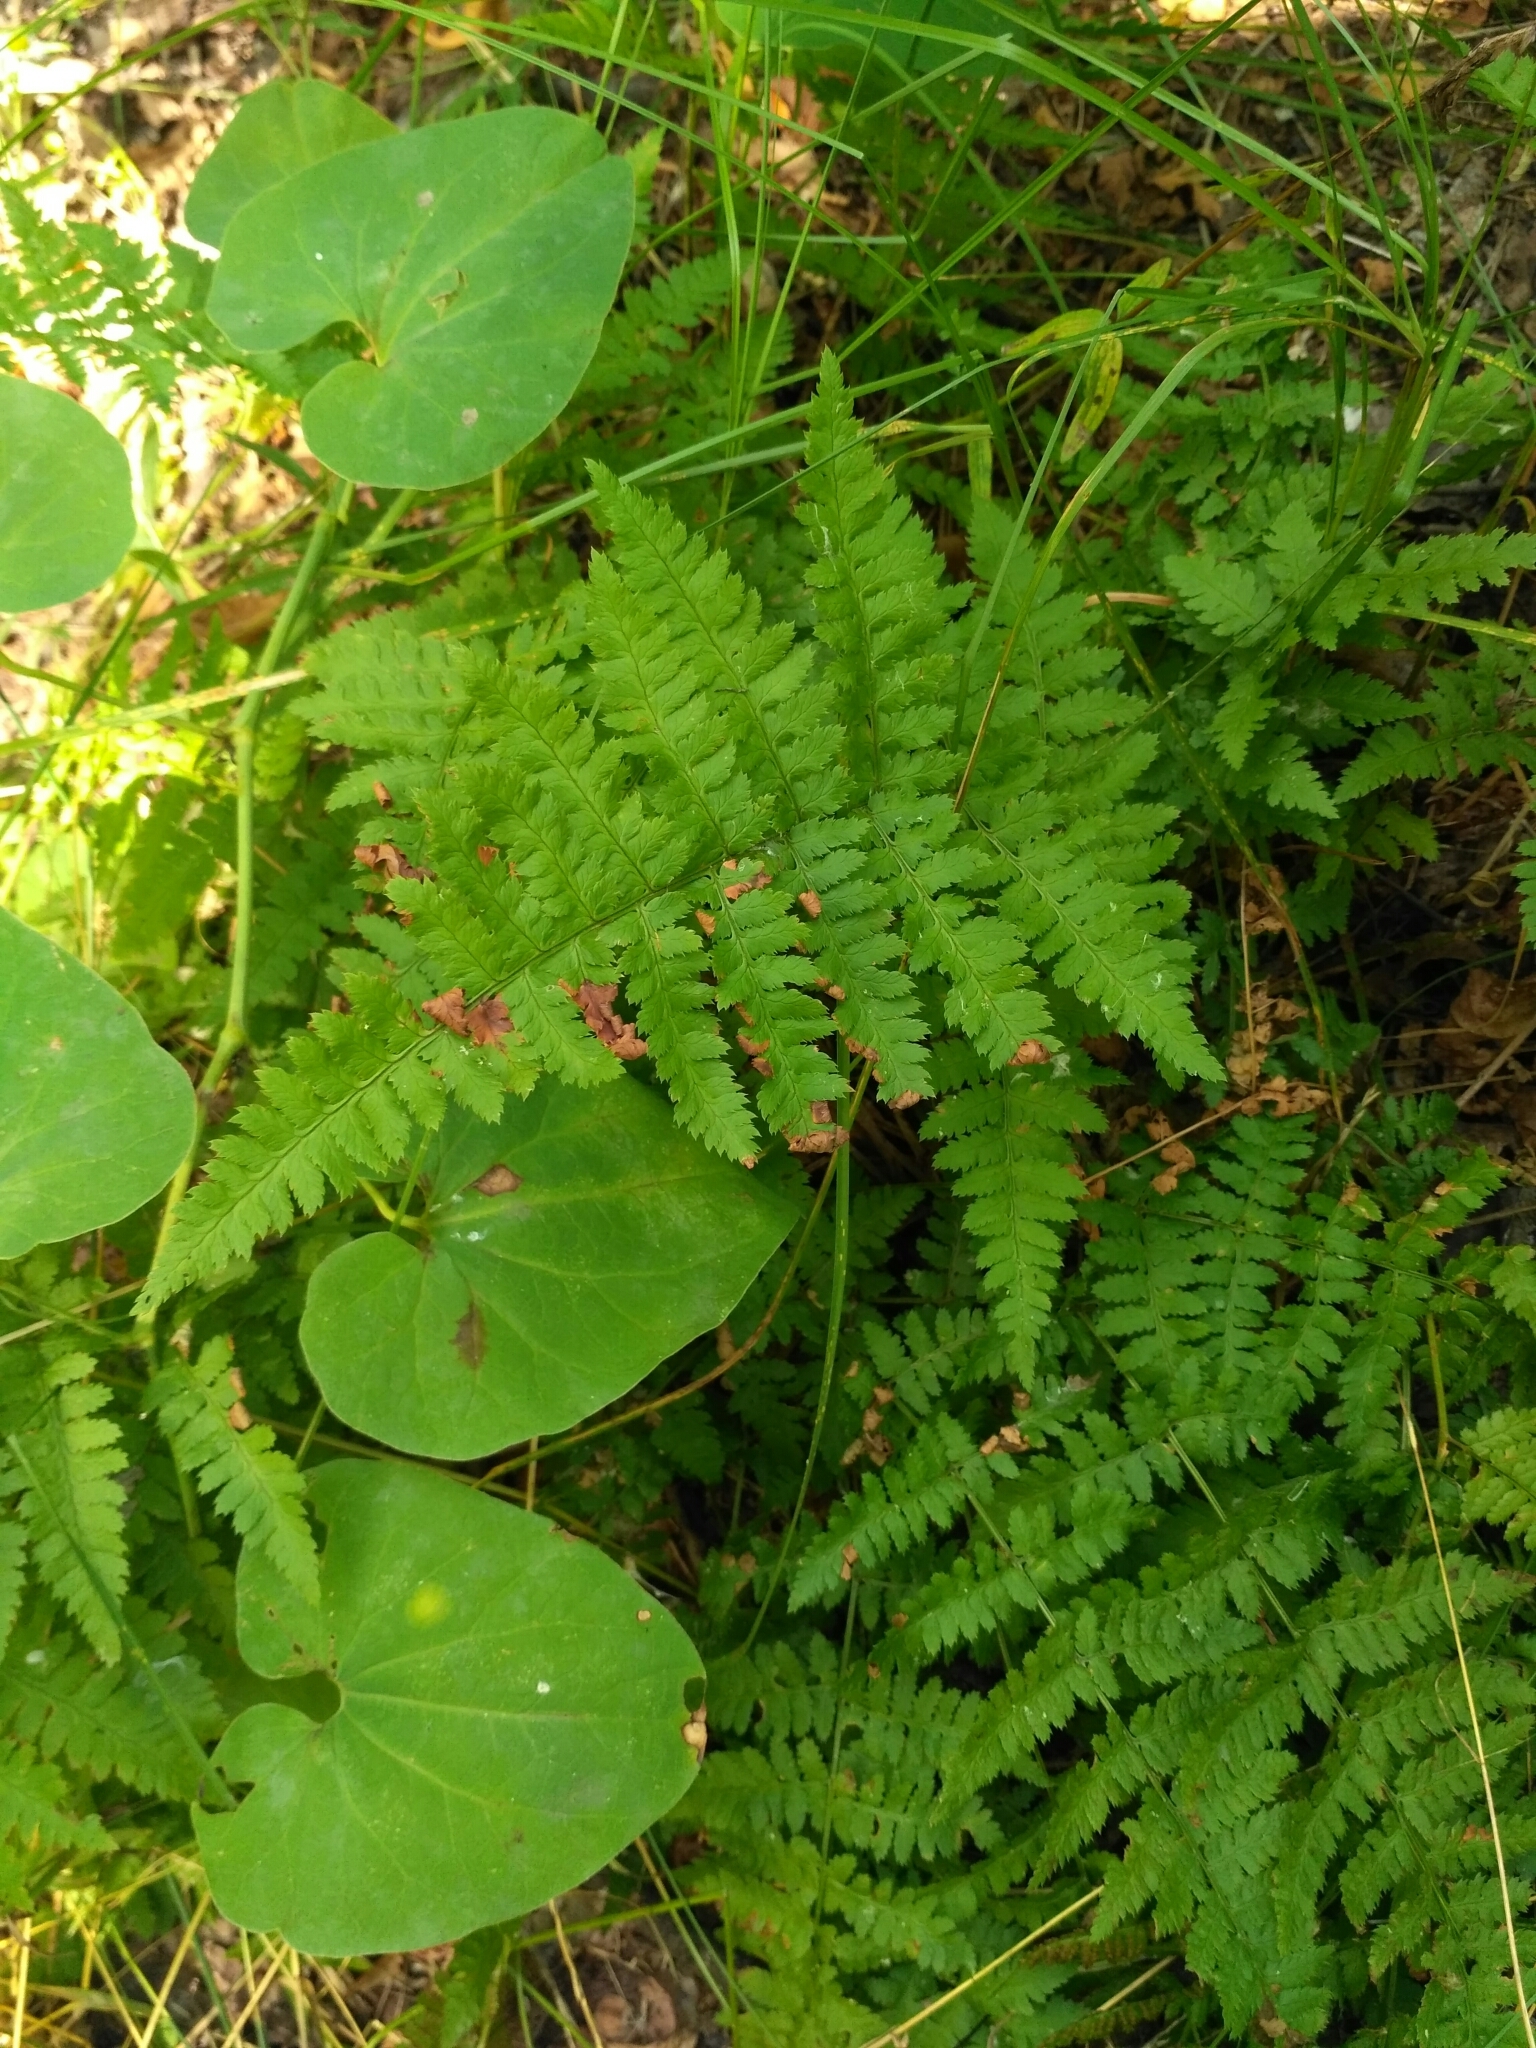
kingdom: Plantae
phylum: Tracheophyta
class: Polypodiopsida
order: Polypodiales
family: Dryopteridaceae
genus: Dryopteris
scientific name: Dryopteris carthusiana
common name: Narrow buckler-fern
